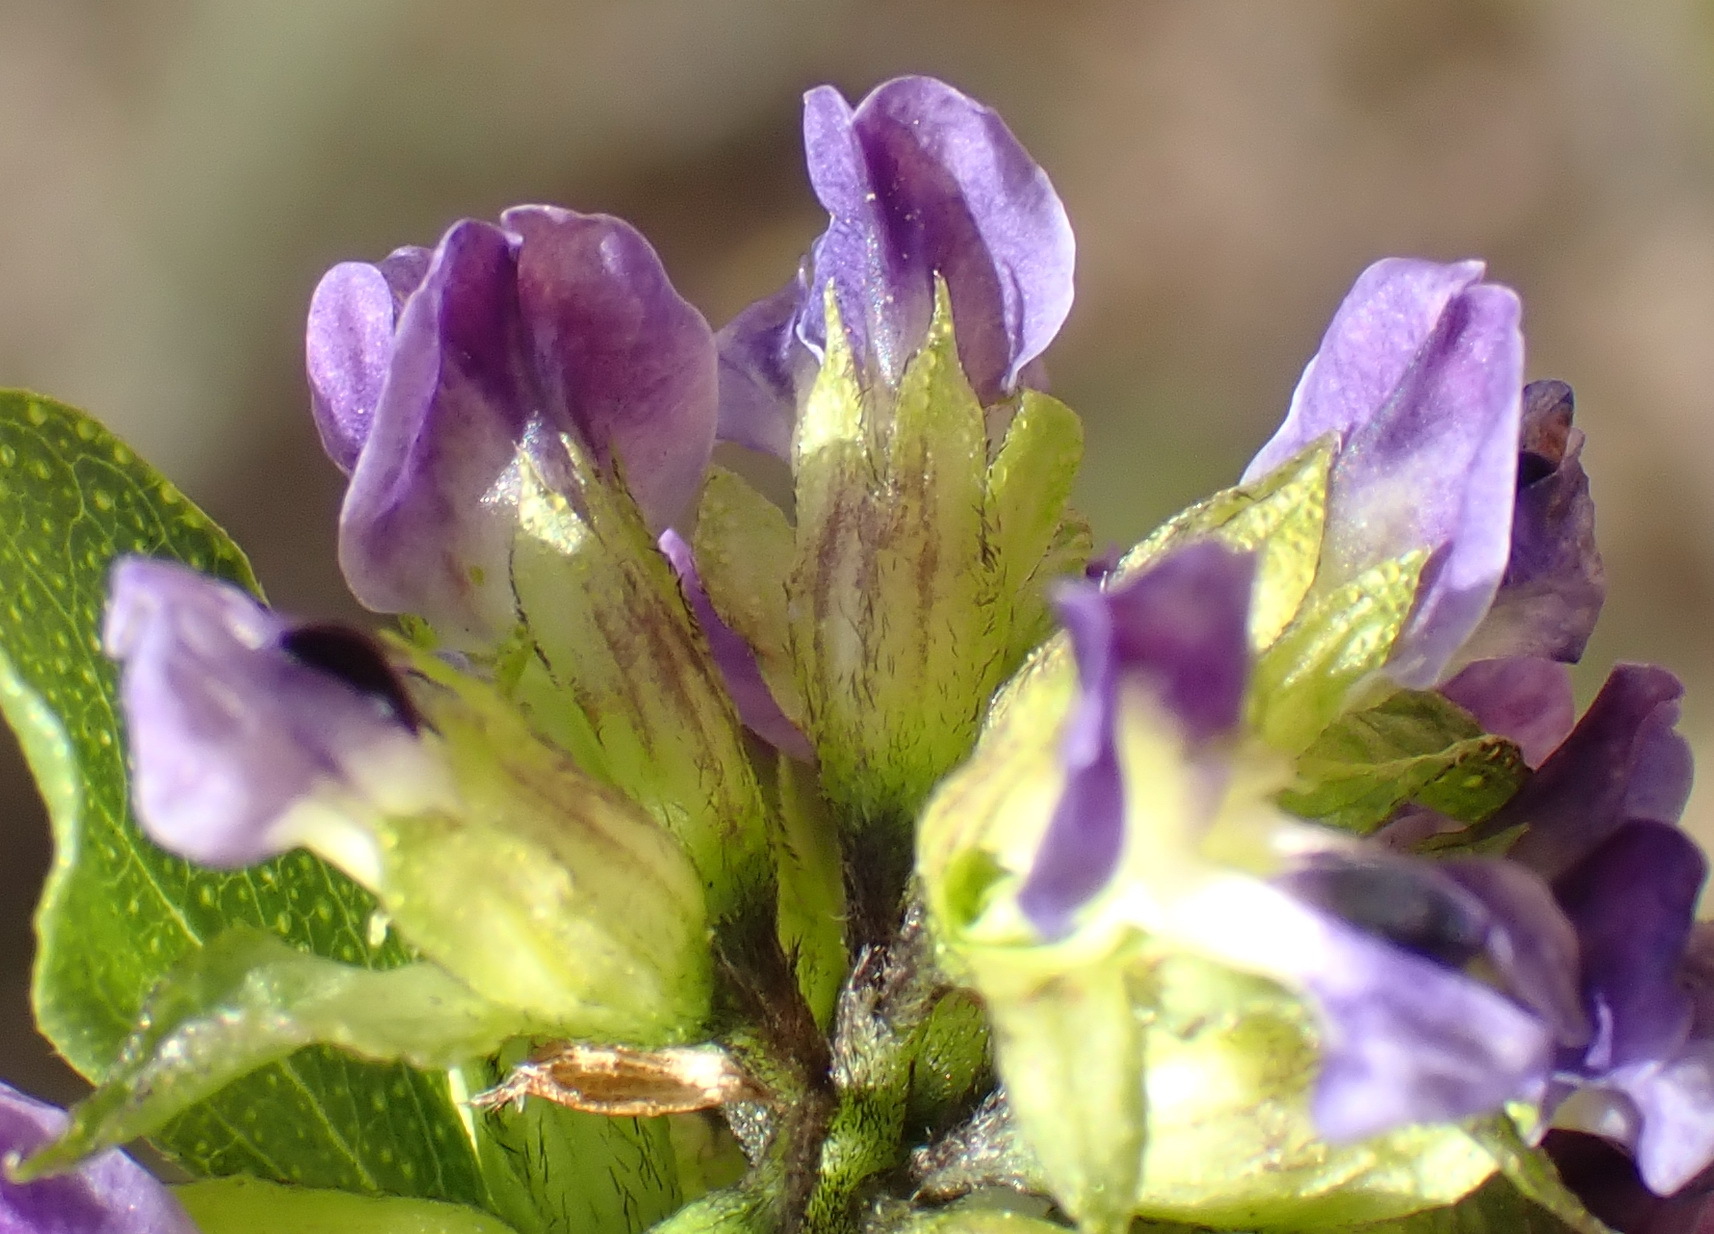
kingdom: Plantae
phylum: Tracheophyta
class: Magnoliopsida
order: Fabales
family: Fabaceae
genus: Psoralea
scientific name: Psoralea acuminata
